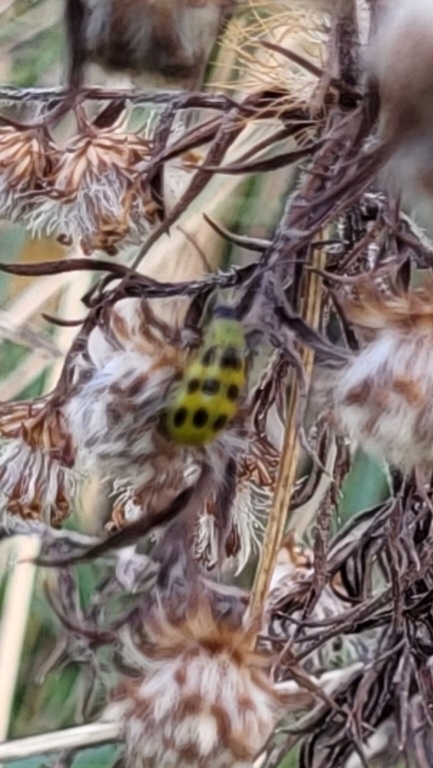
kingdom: Animalia
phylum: Arthropoda
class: Insecta
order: Coleoptera
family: Chrysomelidae
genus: Diabrotica
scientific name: Diabrotica undecimpunctata
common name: Spotted cucumber beetle
